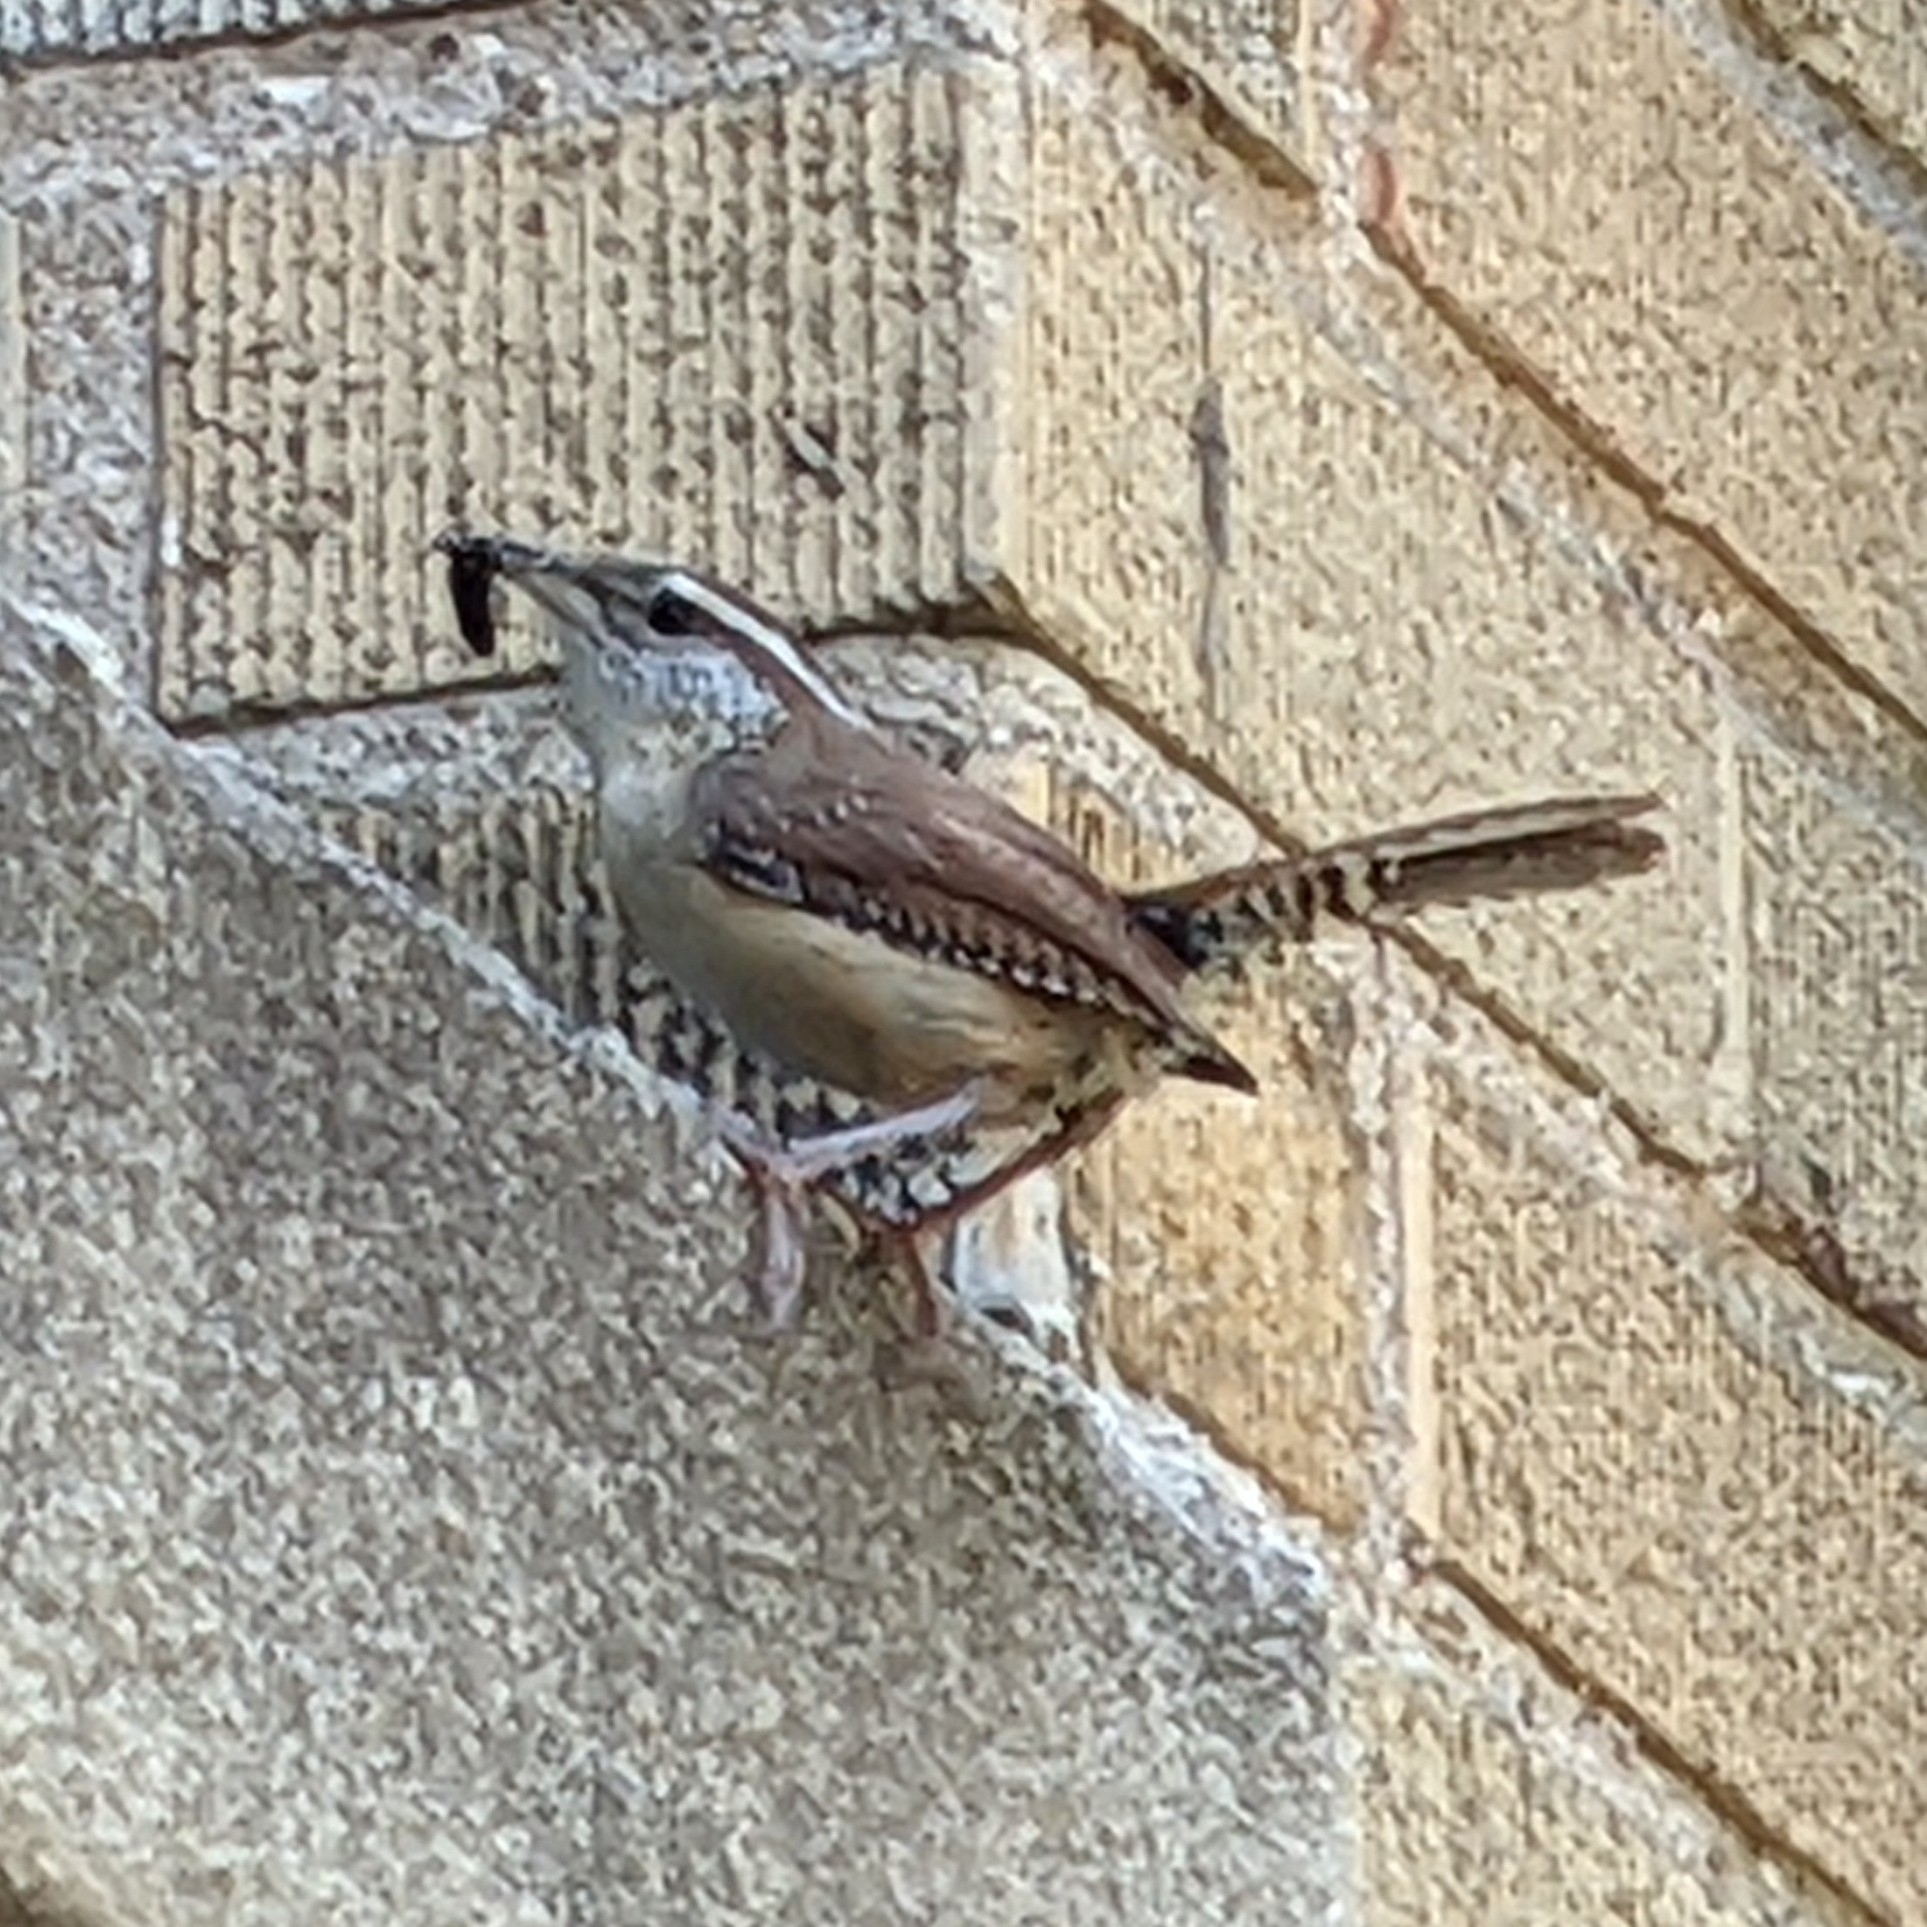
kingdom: Animalia
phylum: Chordata
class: Aves
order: Passeriformes
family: Troglodytidae
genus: Thryothorus
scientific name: Thryothorus ludovicianus
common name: Carolina wren
